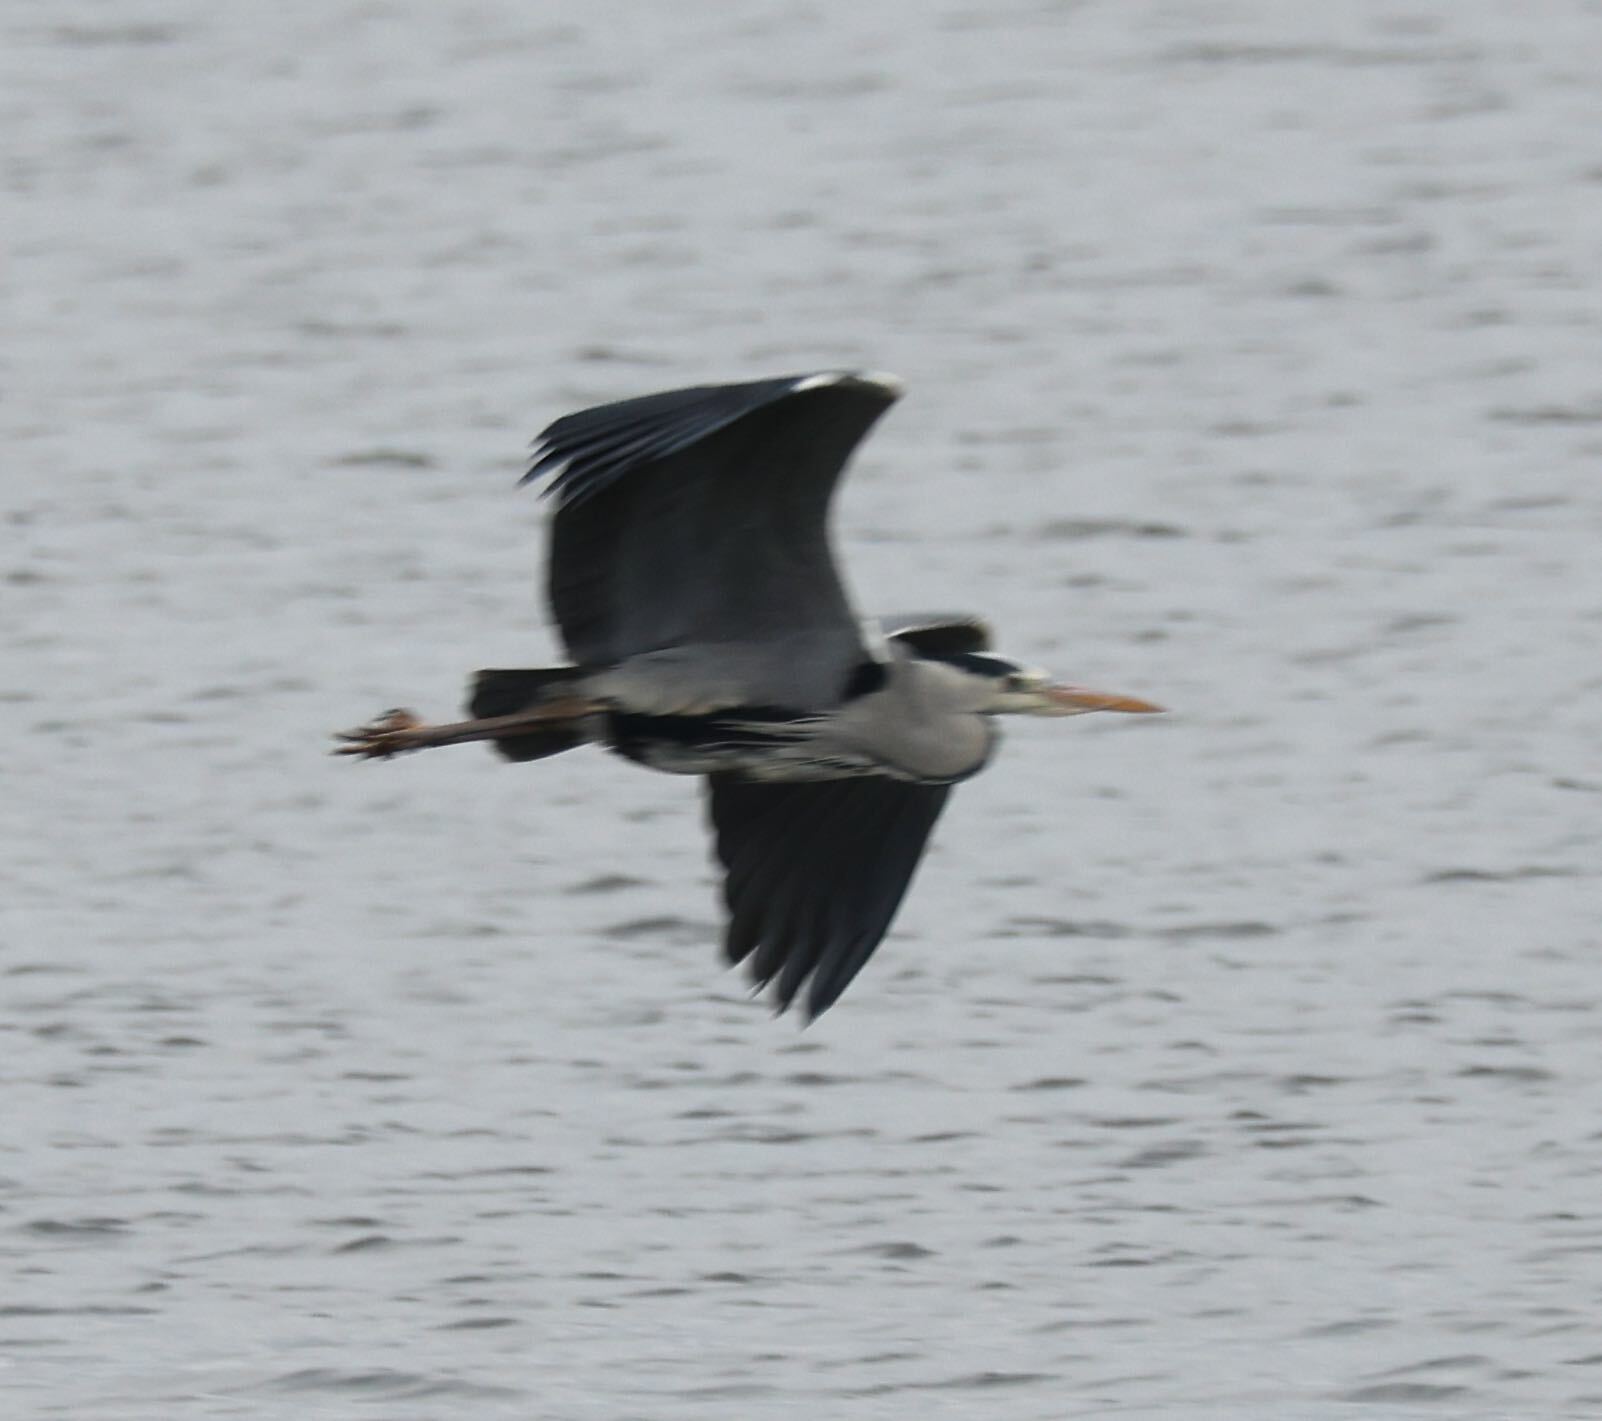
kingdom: Animalia
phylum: Chordata
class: Aves
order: Pelecaniformes
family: Ardeidae
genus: Ardea
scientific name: Ardea cinerea
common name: Grey heron
